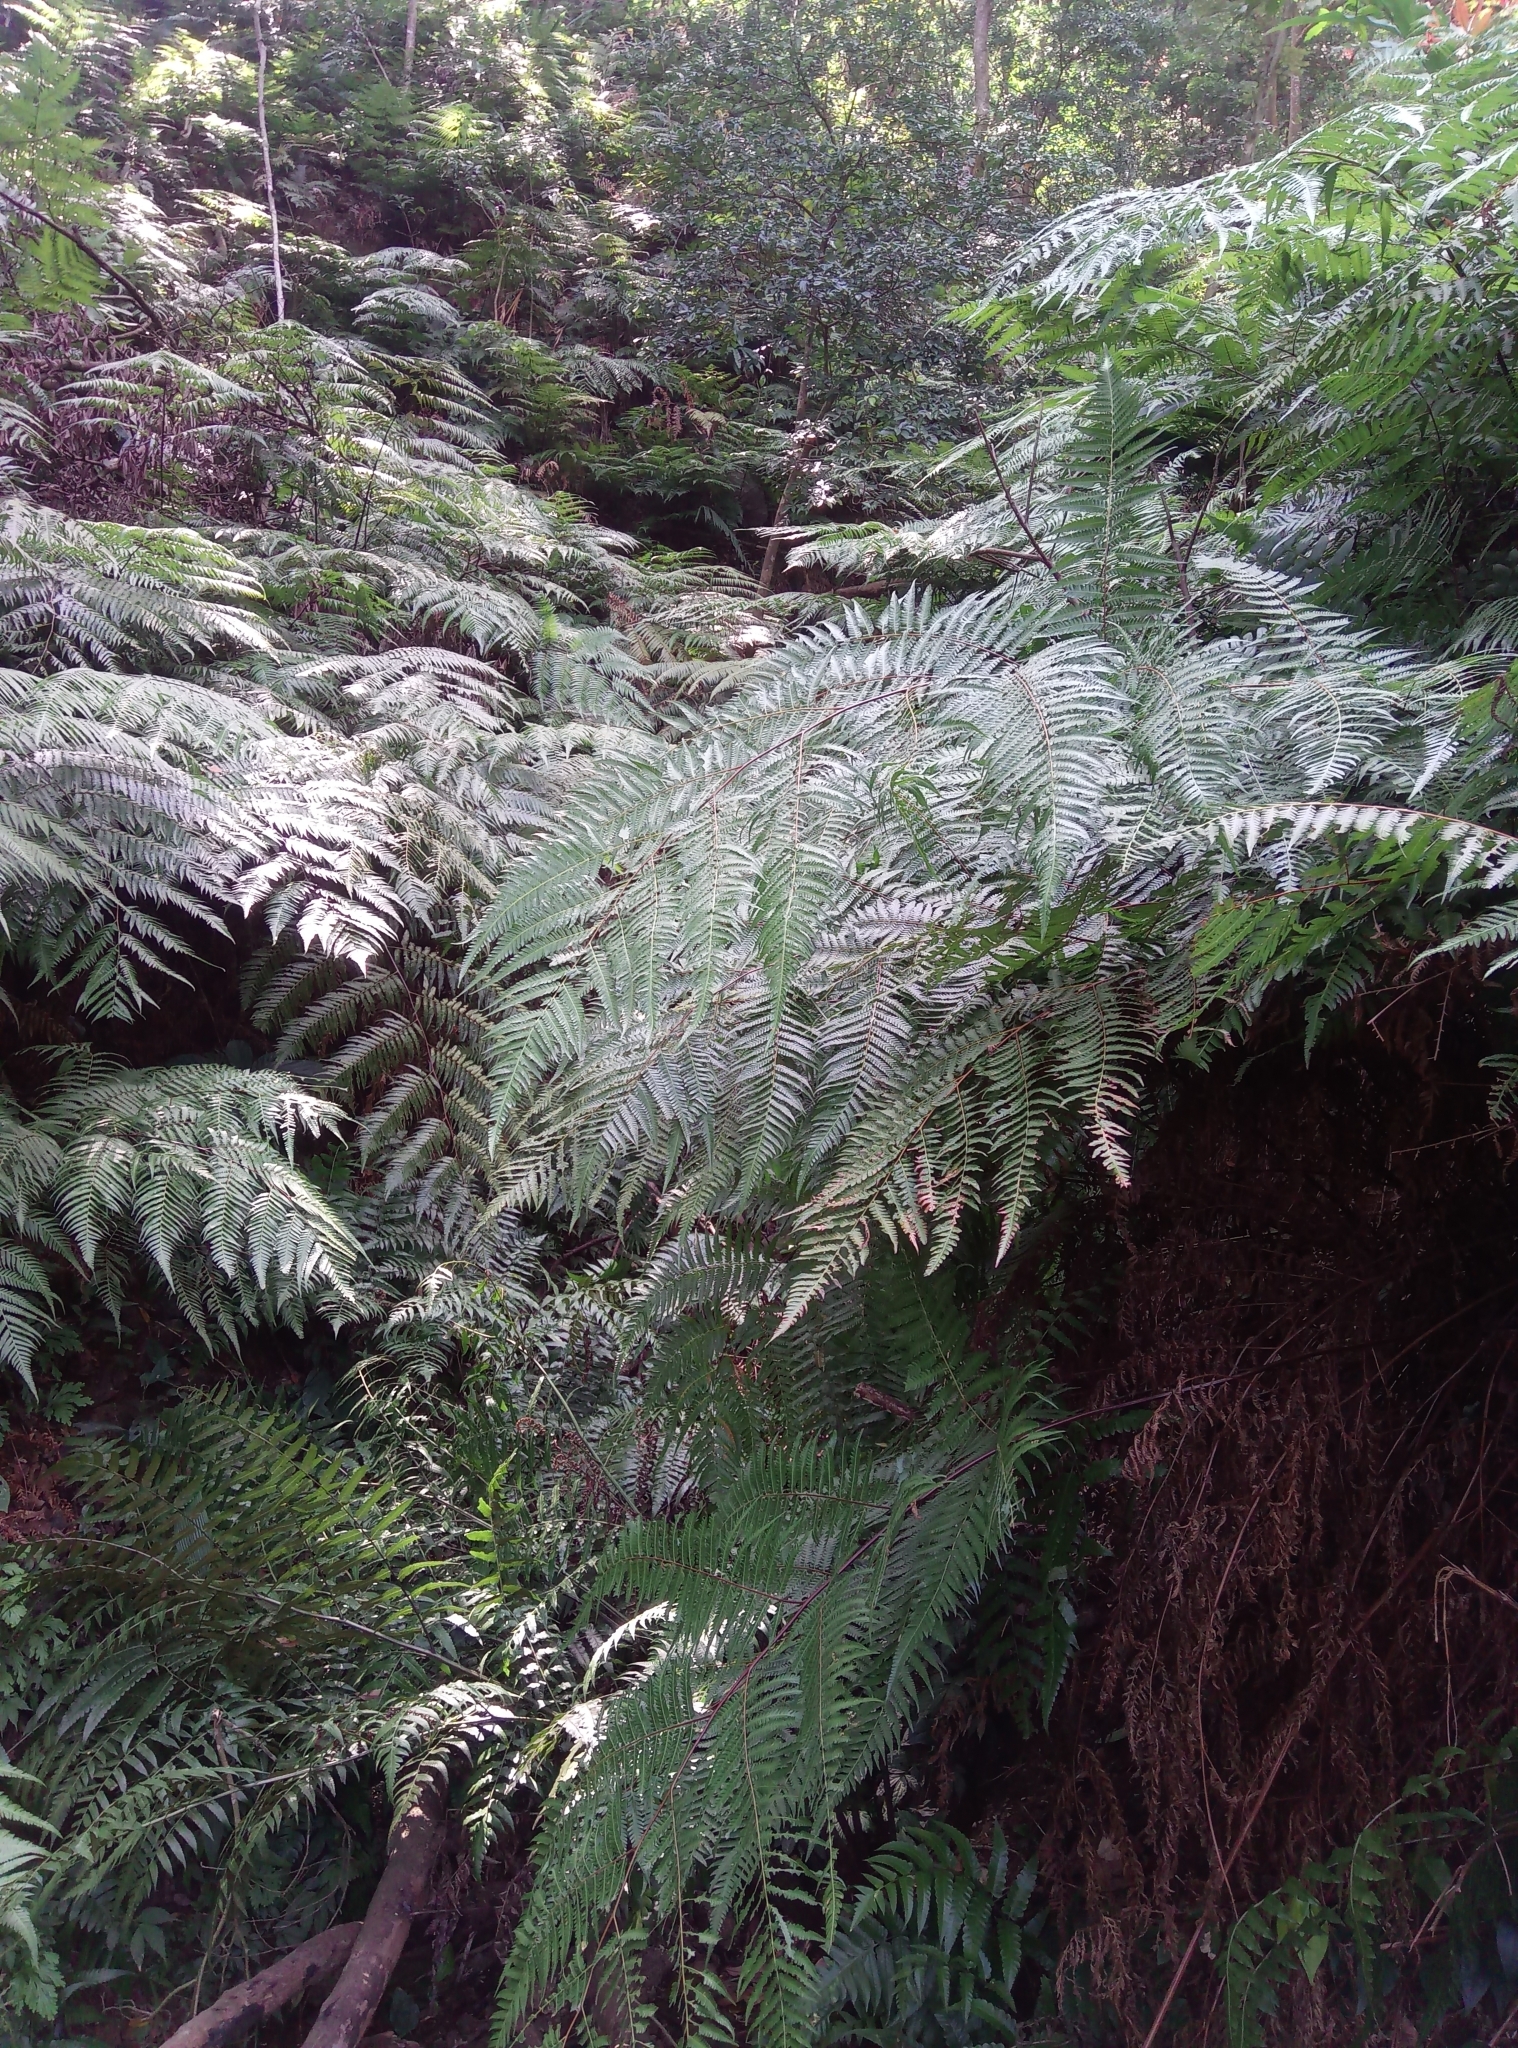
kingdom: Plantae
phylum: Tracheophyta
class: Polypodiopsida
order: Cyatheales
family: Cibotiaceae
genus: Cibotium
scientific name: Cibotium barometz
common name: Scythian-lamb
